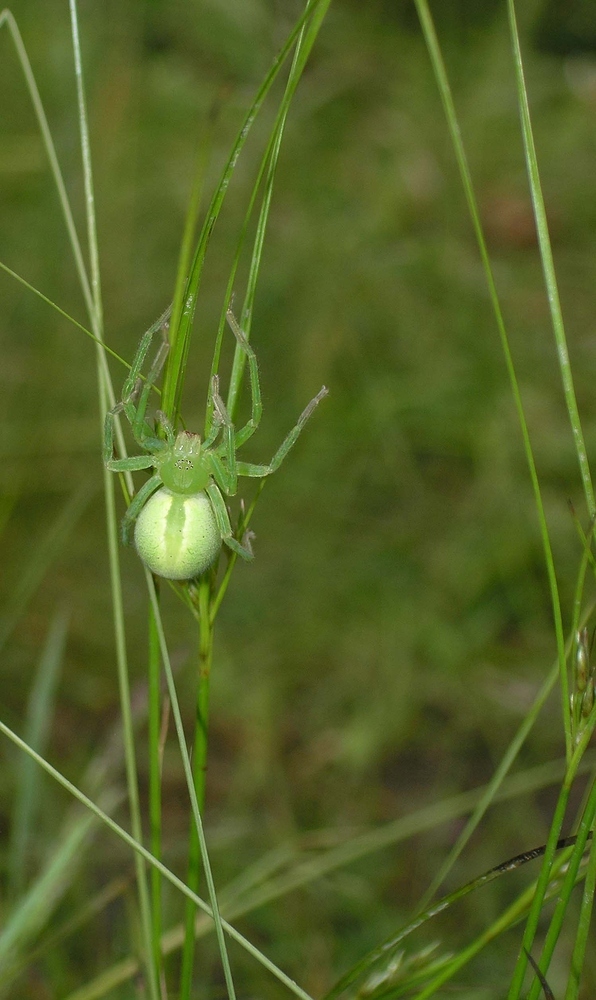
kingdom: Animalia
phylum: Arthropoda
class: Arachnida
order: Araneae
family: Sparassidae
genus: Micrommata
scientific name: Micrommata virescens
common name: Green spider
